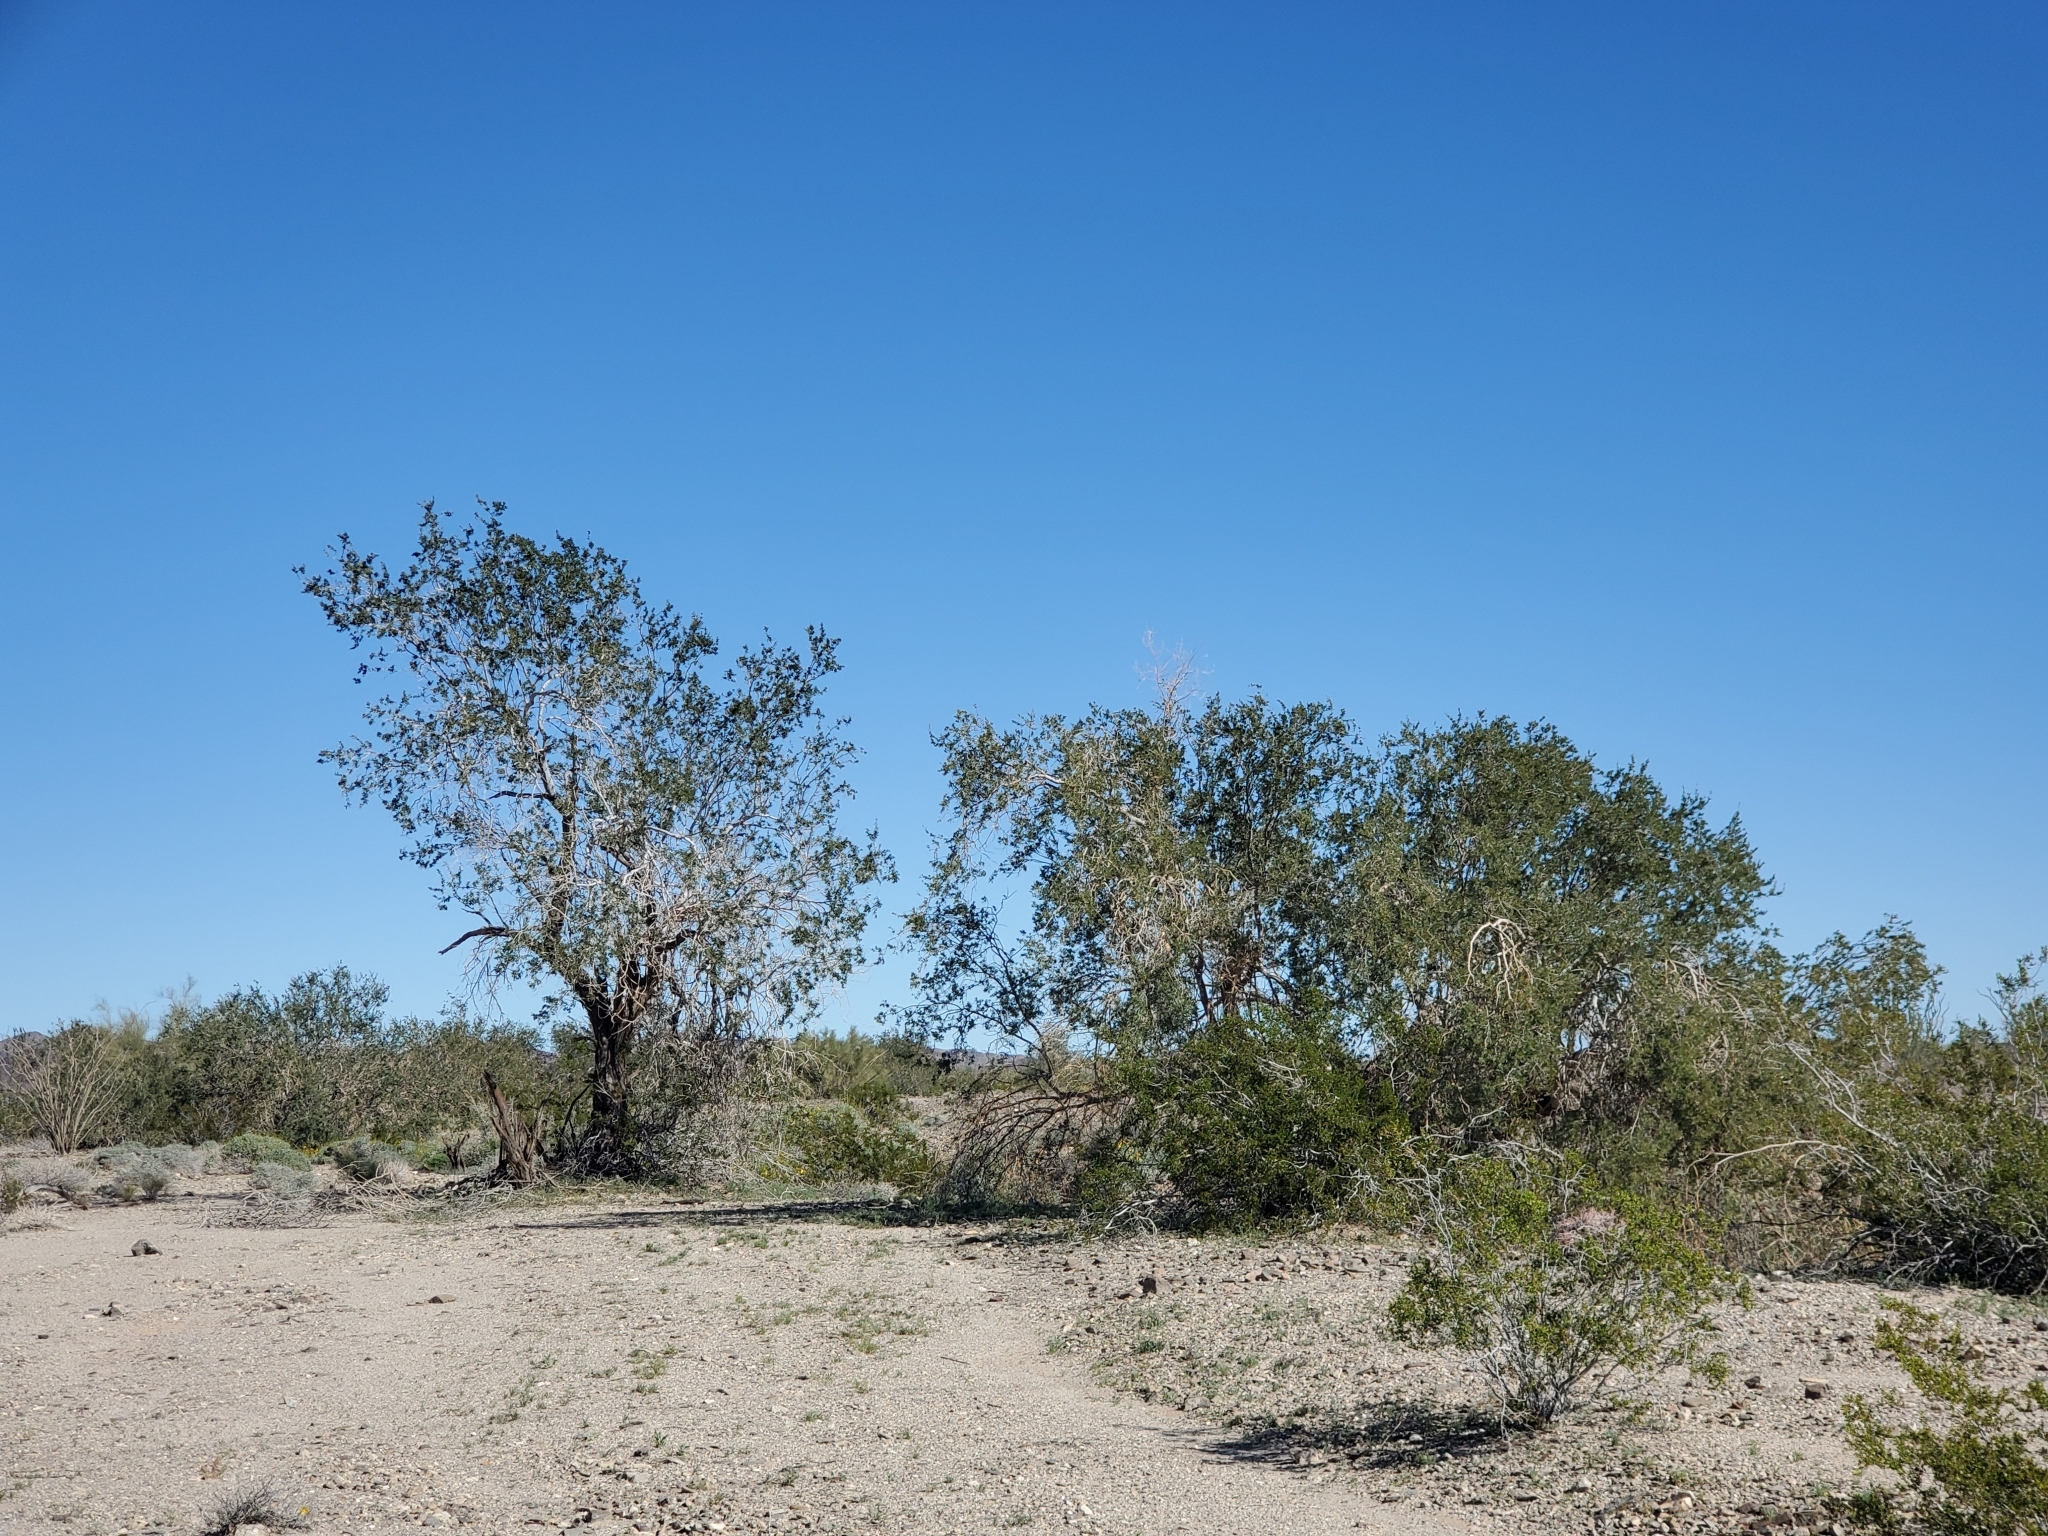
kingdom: Plantae
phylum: Tracheophyta
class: Magnoliopsida
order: Fabales
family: Fabaceae
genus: Olneya
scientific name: Olneya tesota
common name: Desert ironwood
